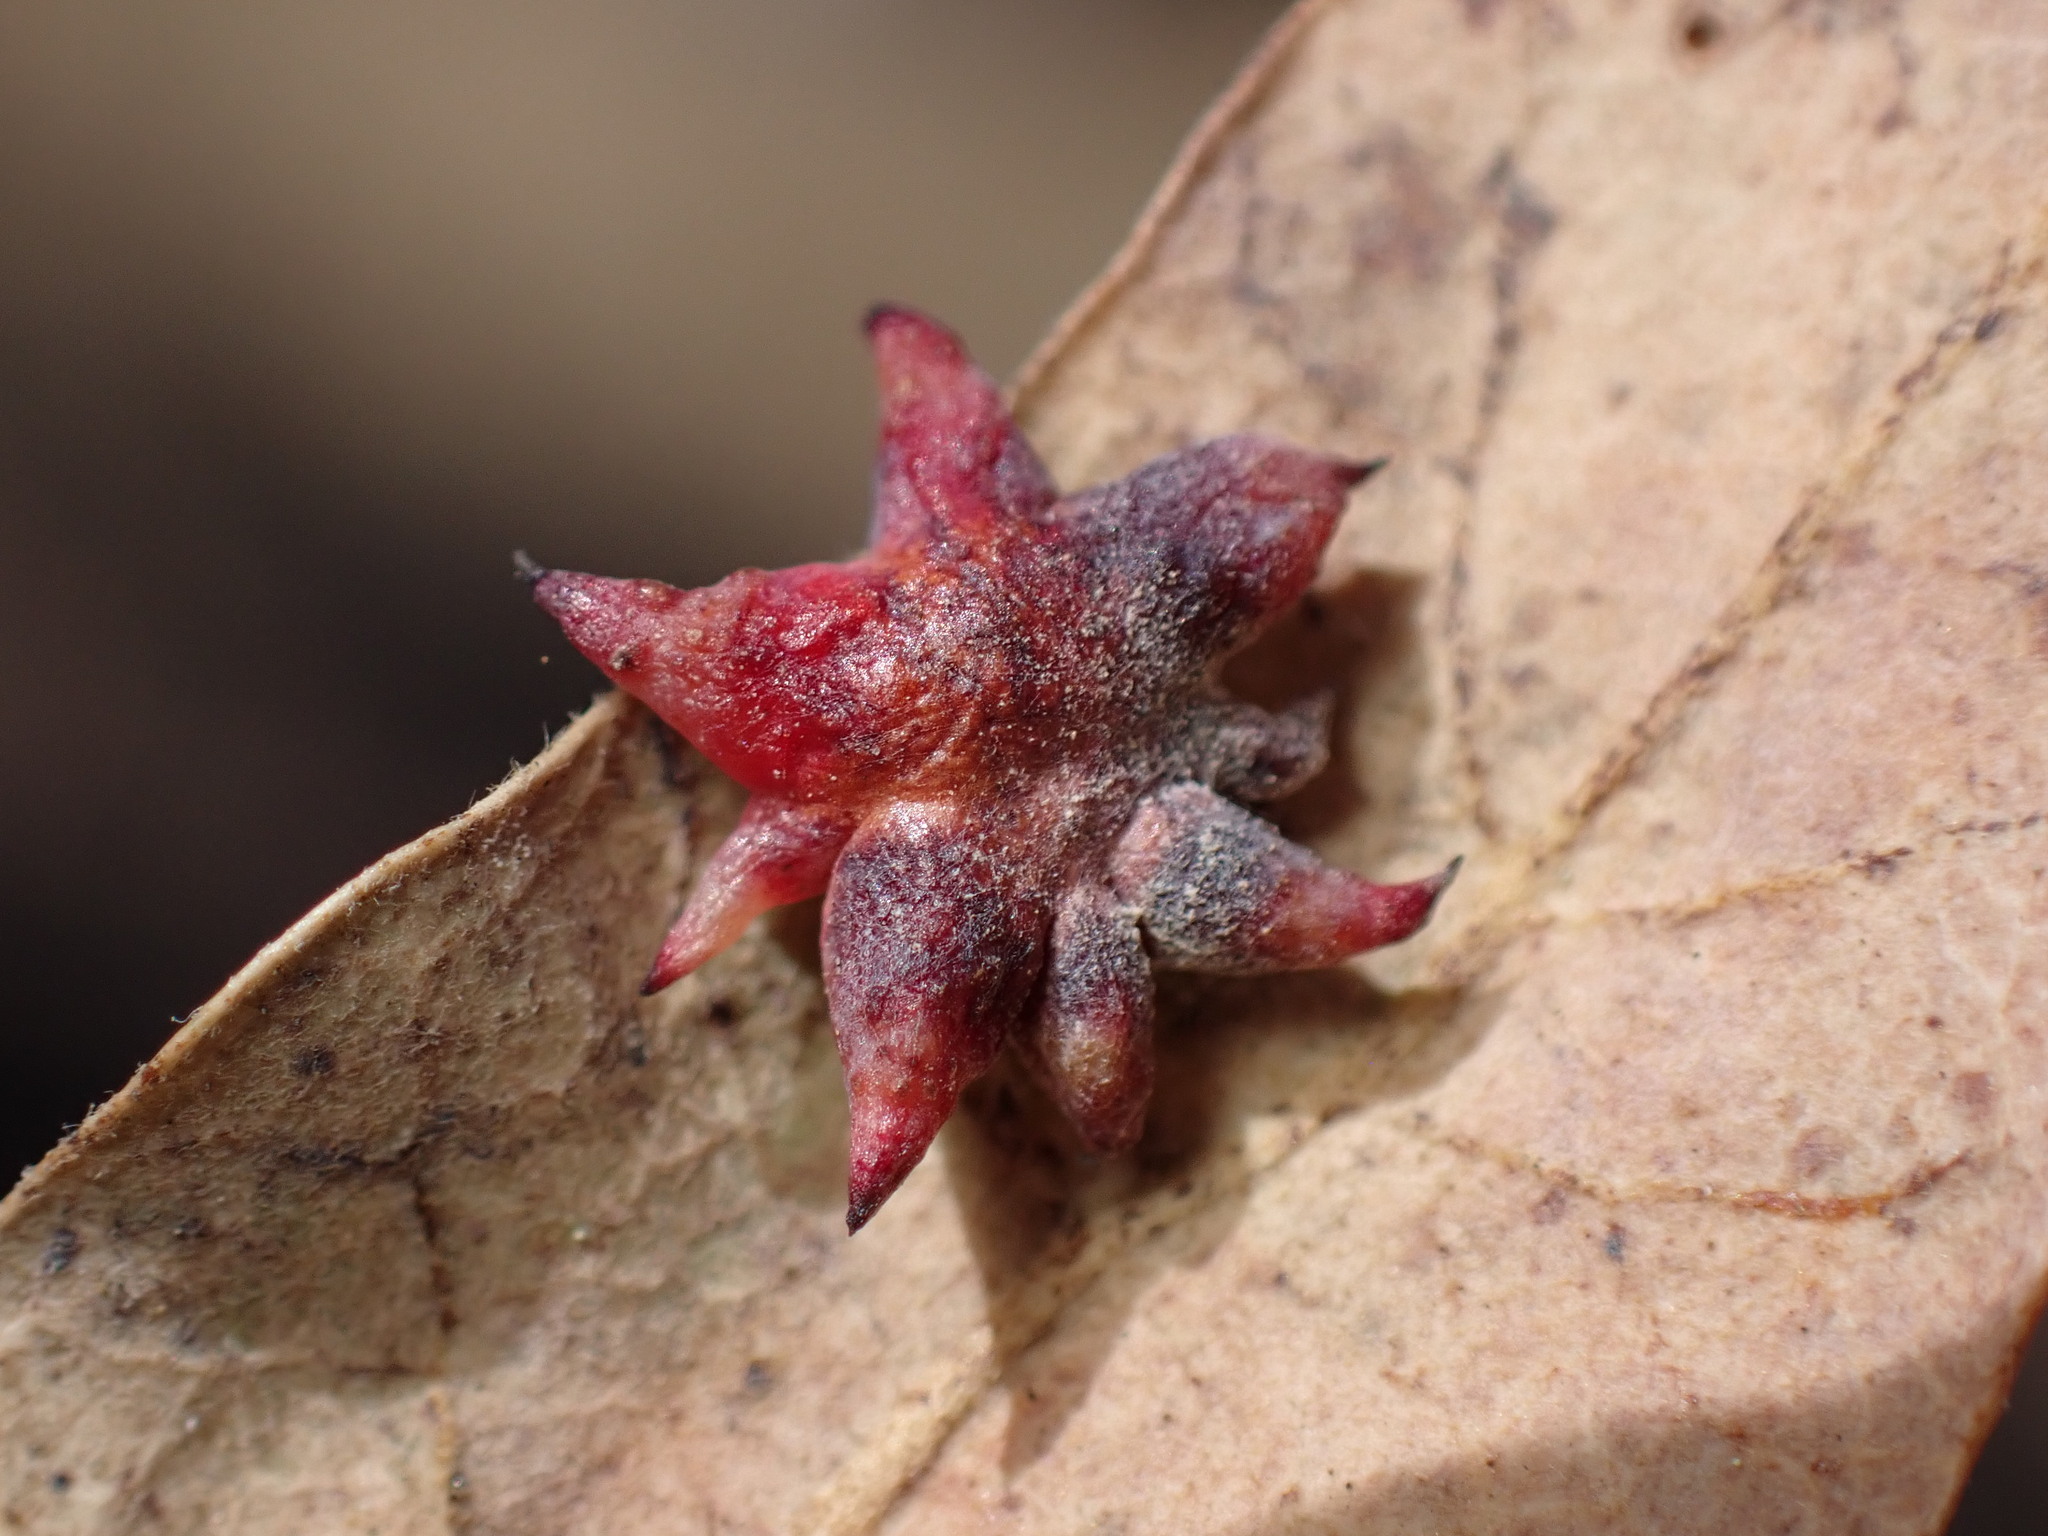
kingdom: Animalia
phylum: Arthropoda
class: Insecta
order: Hymenoptera
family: Cynipidae
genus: Cynips
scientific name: Cynips
